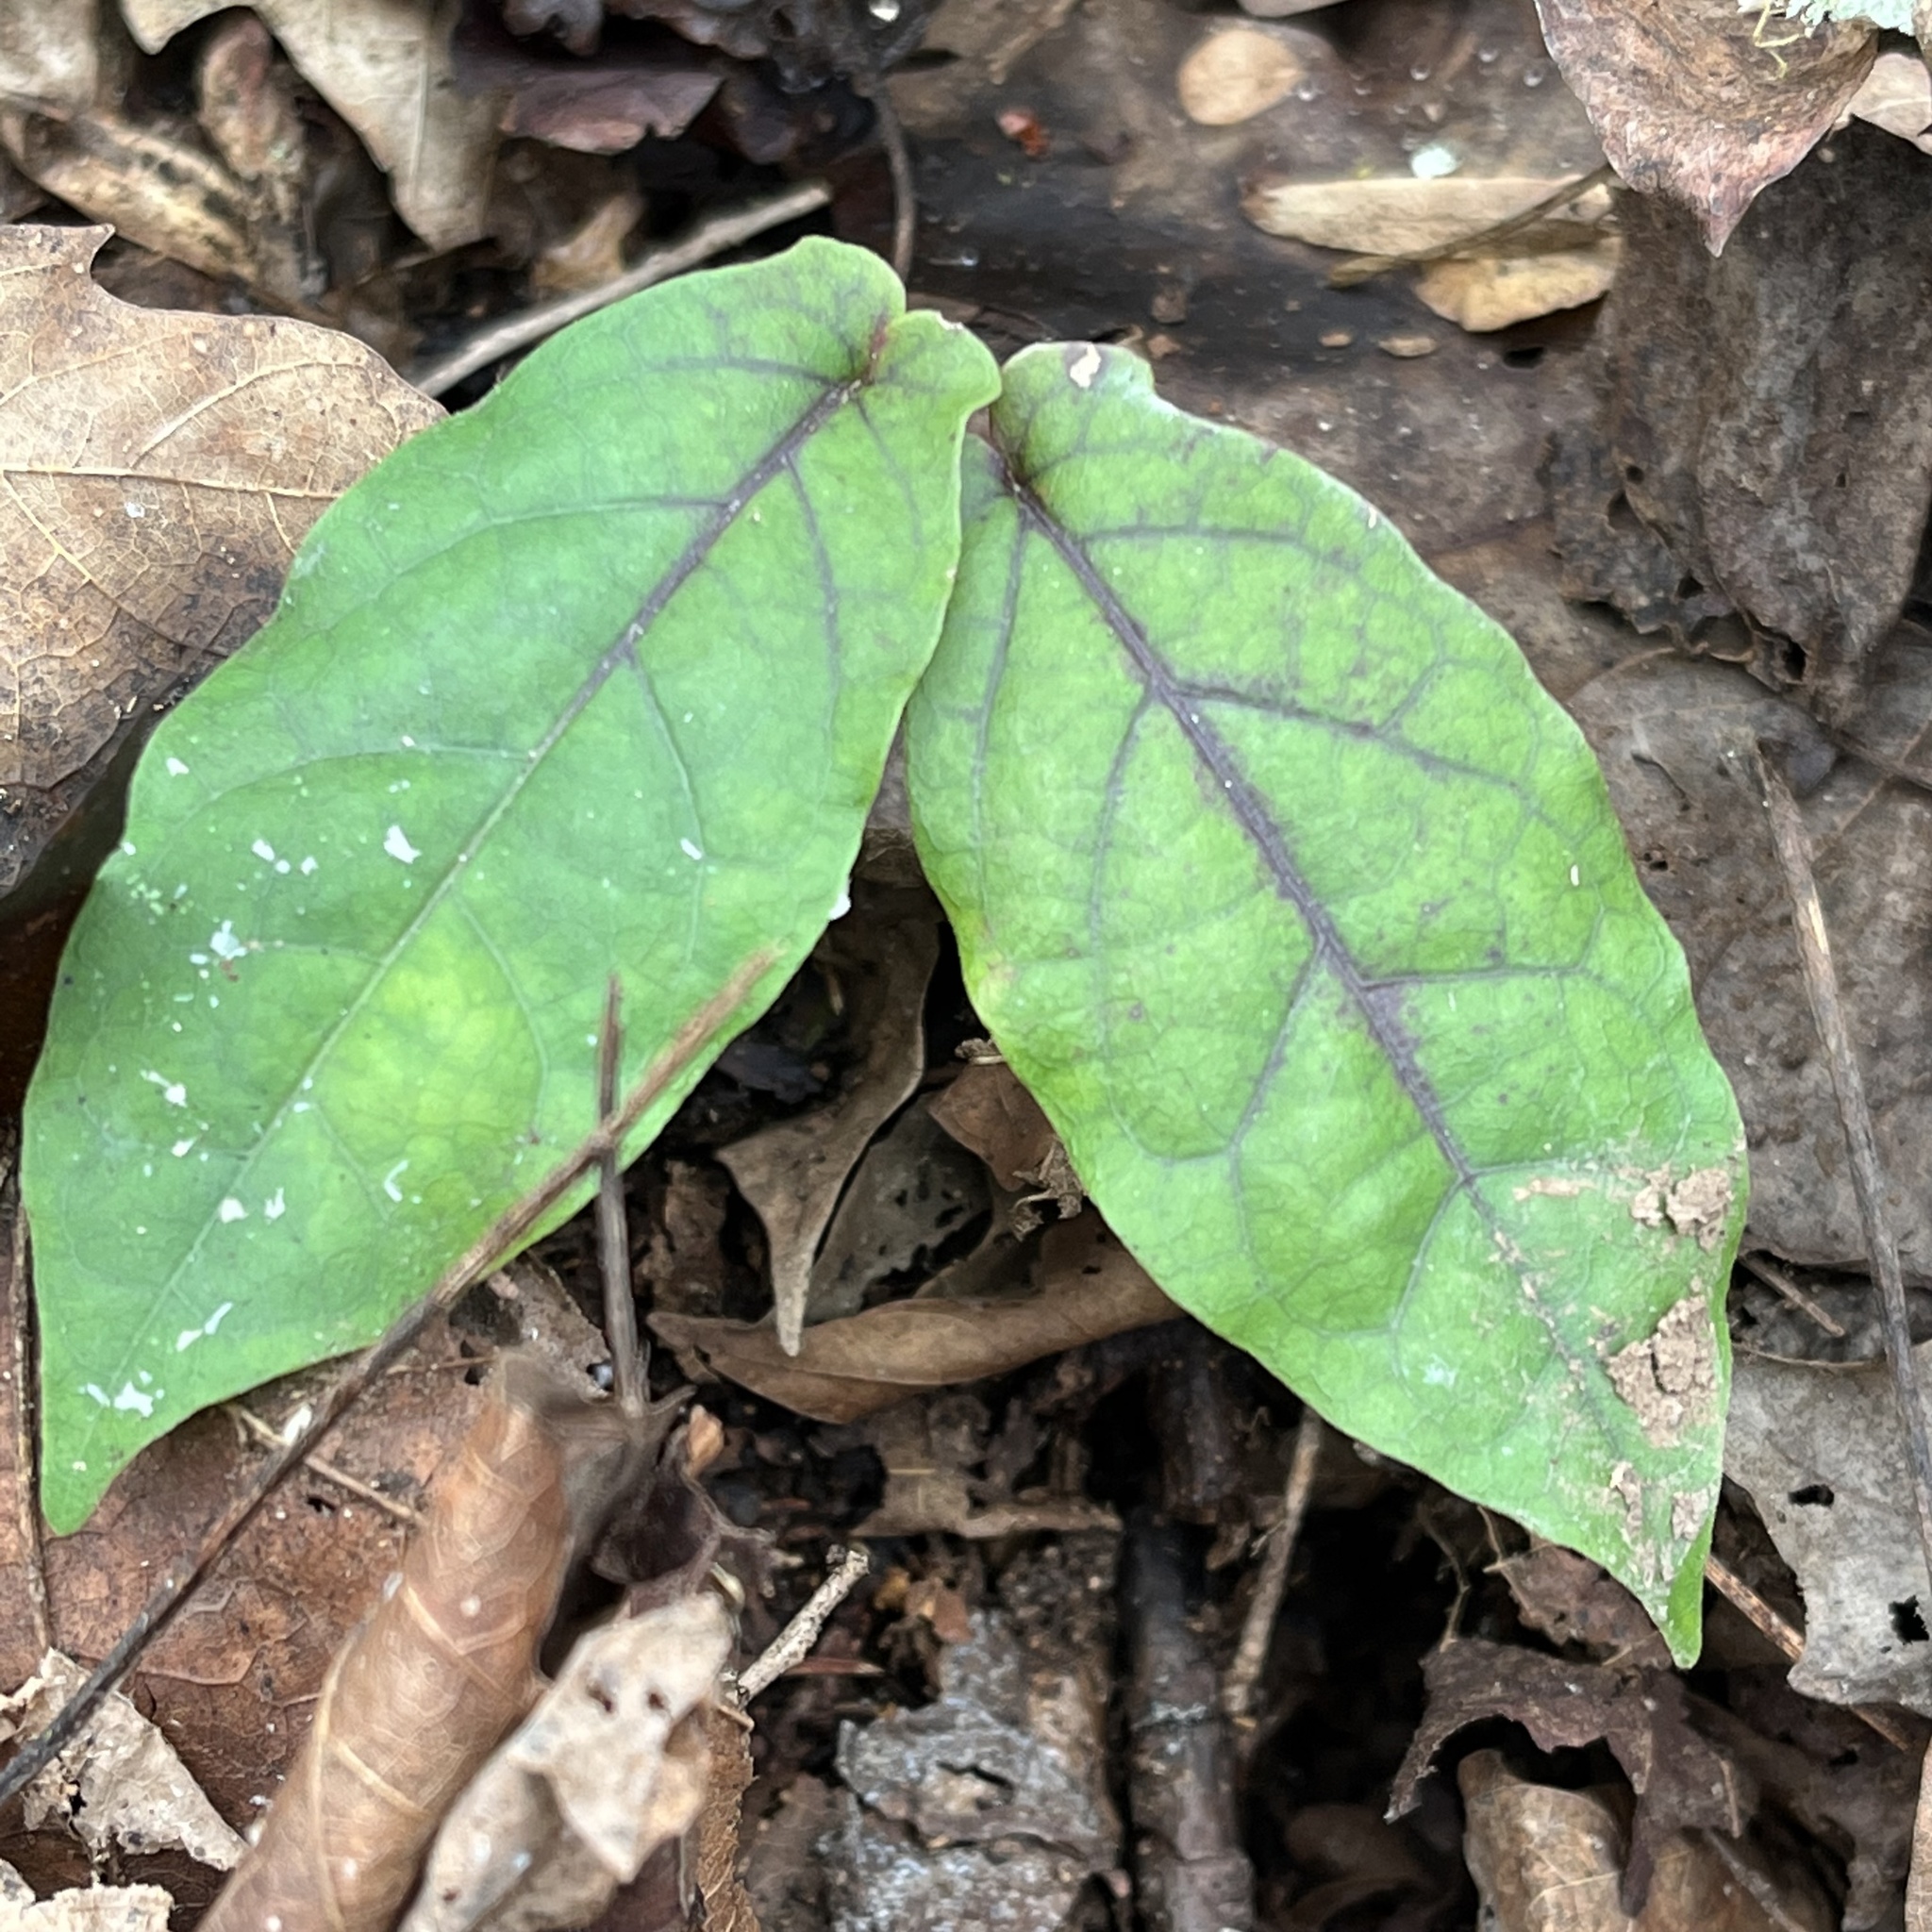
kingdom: Plantae
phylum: Tracheophyta
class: Magnoliopsida
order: Lamiales
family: Bignoniaceae
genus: Bignonia
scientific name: Bignonia capreolata
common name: Crossvine
